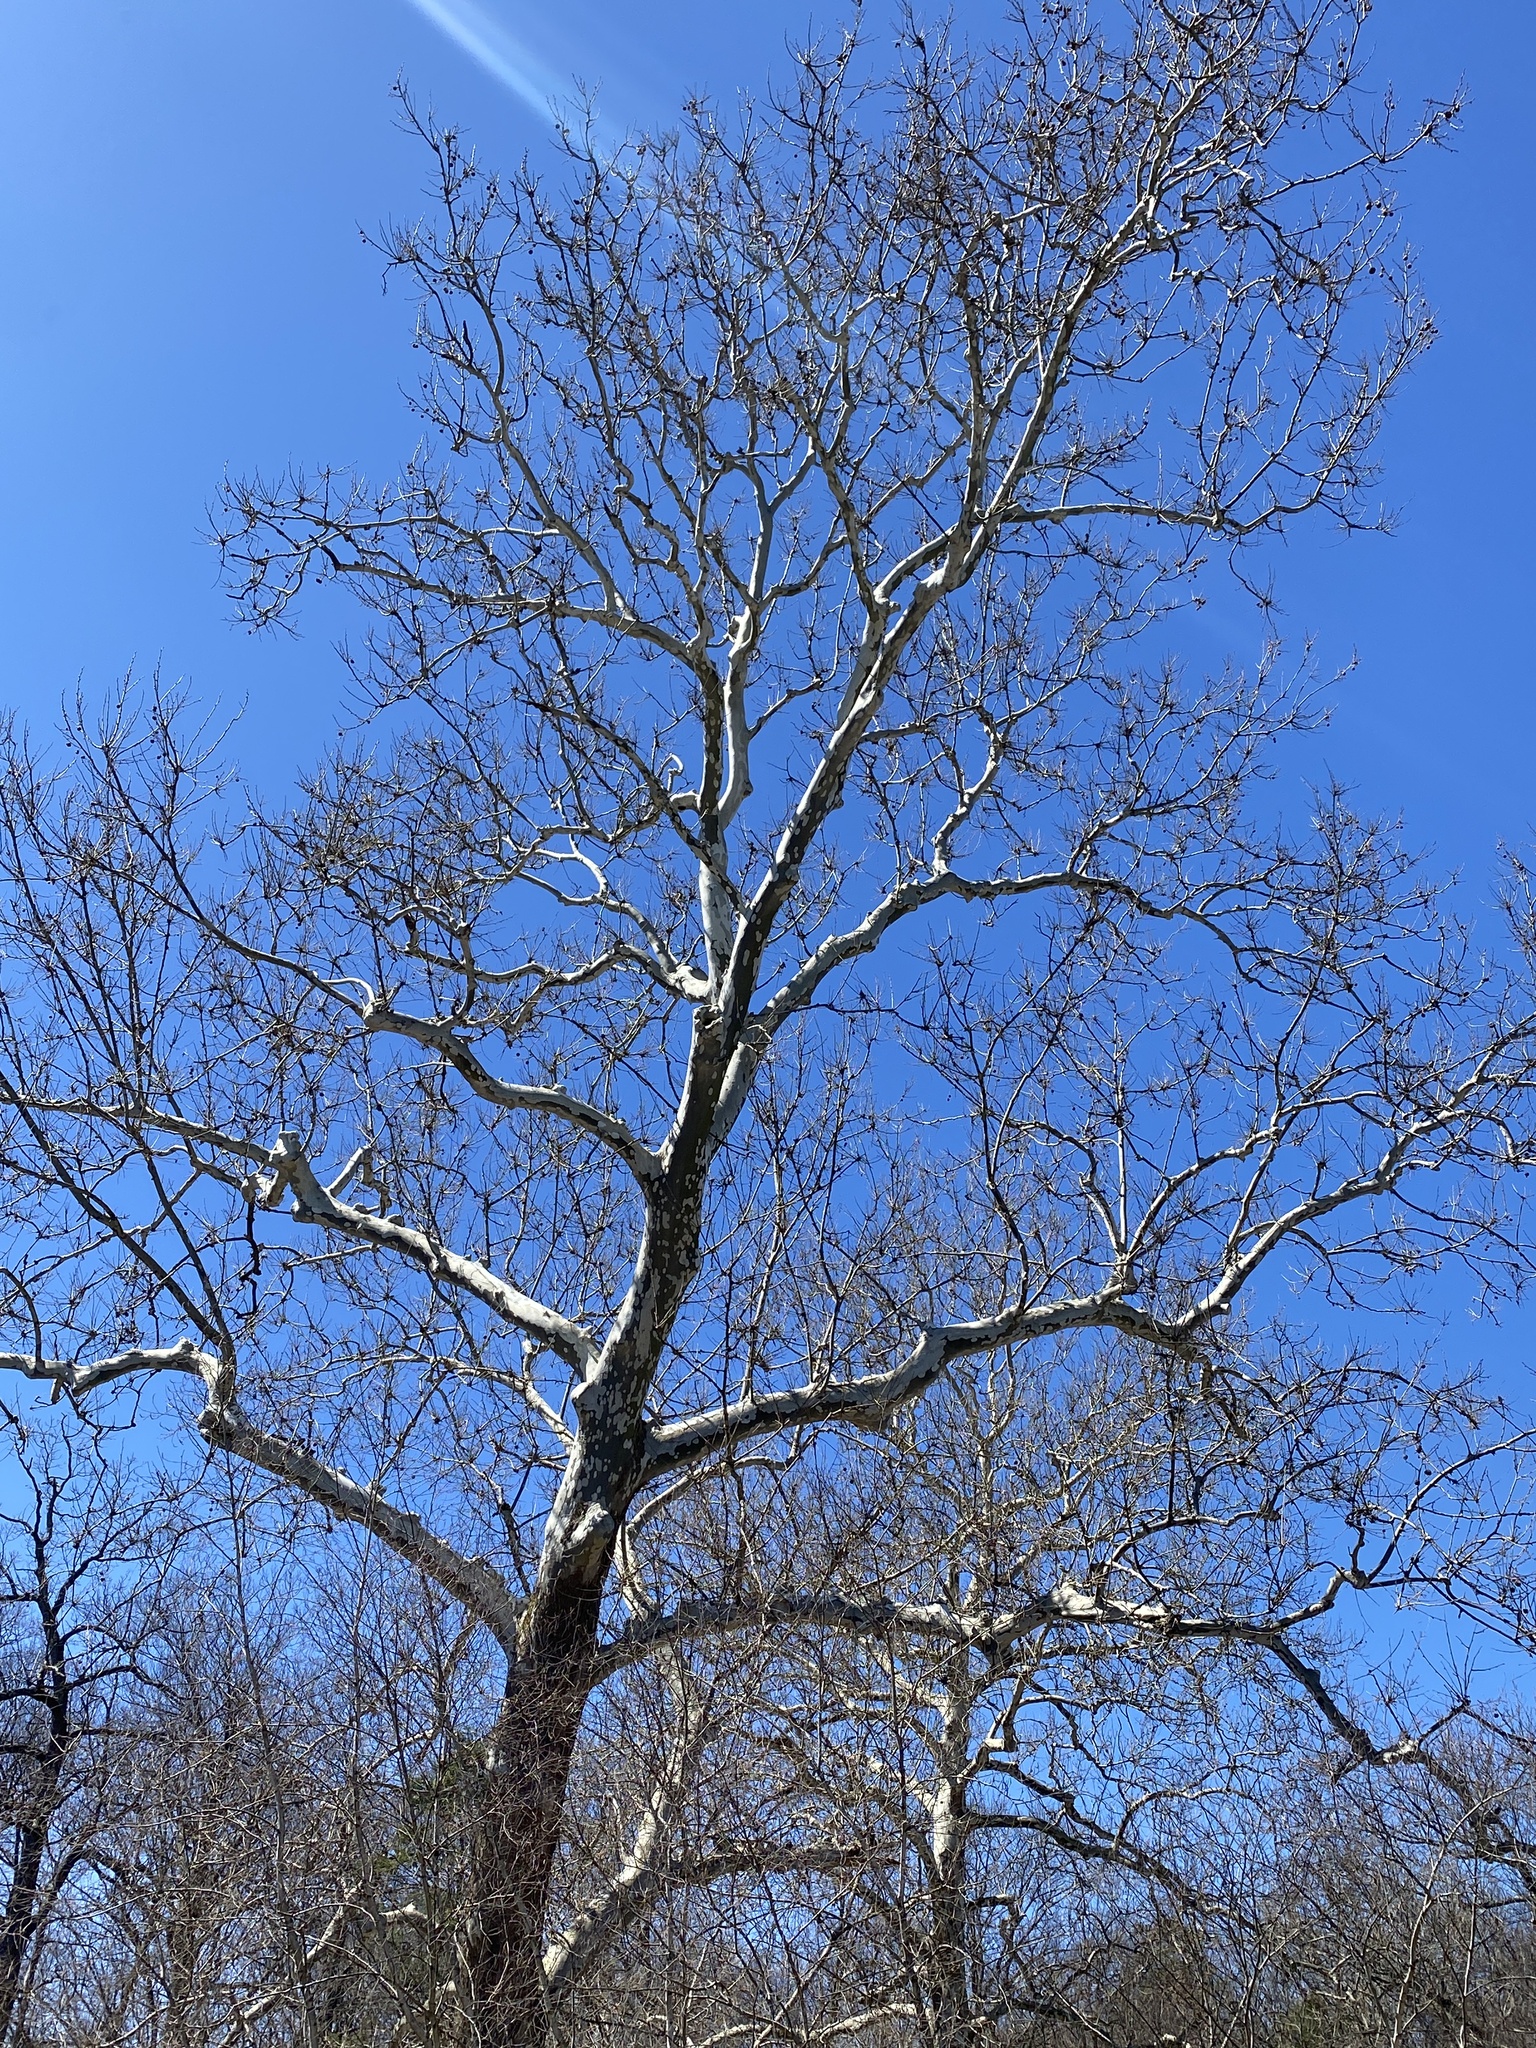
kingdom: Plantae
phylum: Tracheophyta
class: Magnoliopsida
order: Proteales
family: Platanaceae
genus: Platanus
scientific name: Platanus occidentalis
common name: American sycamore
